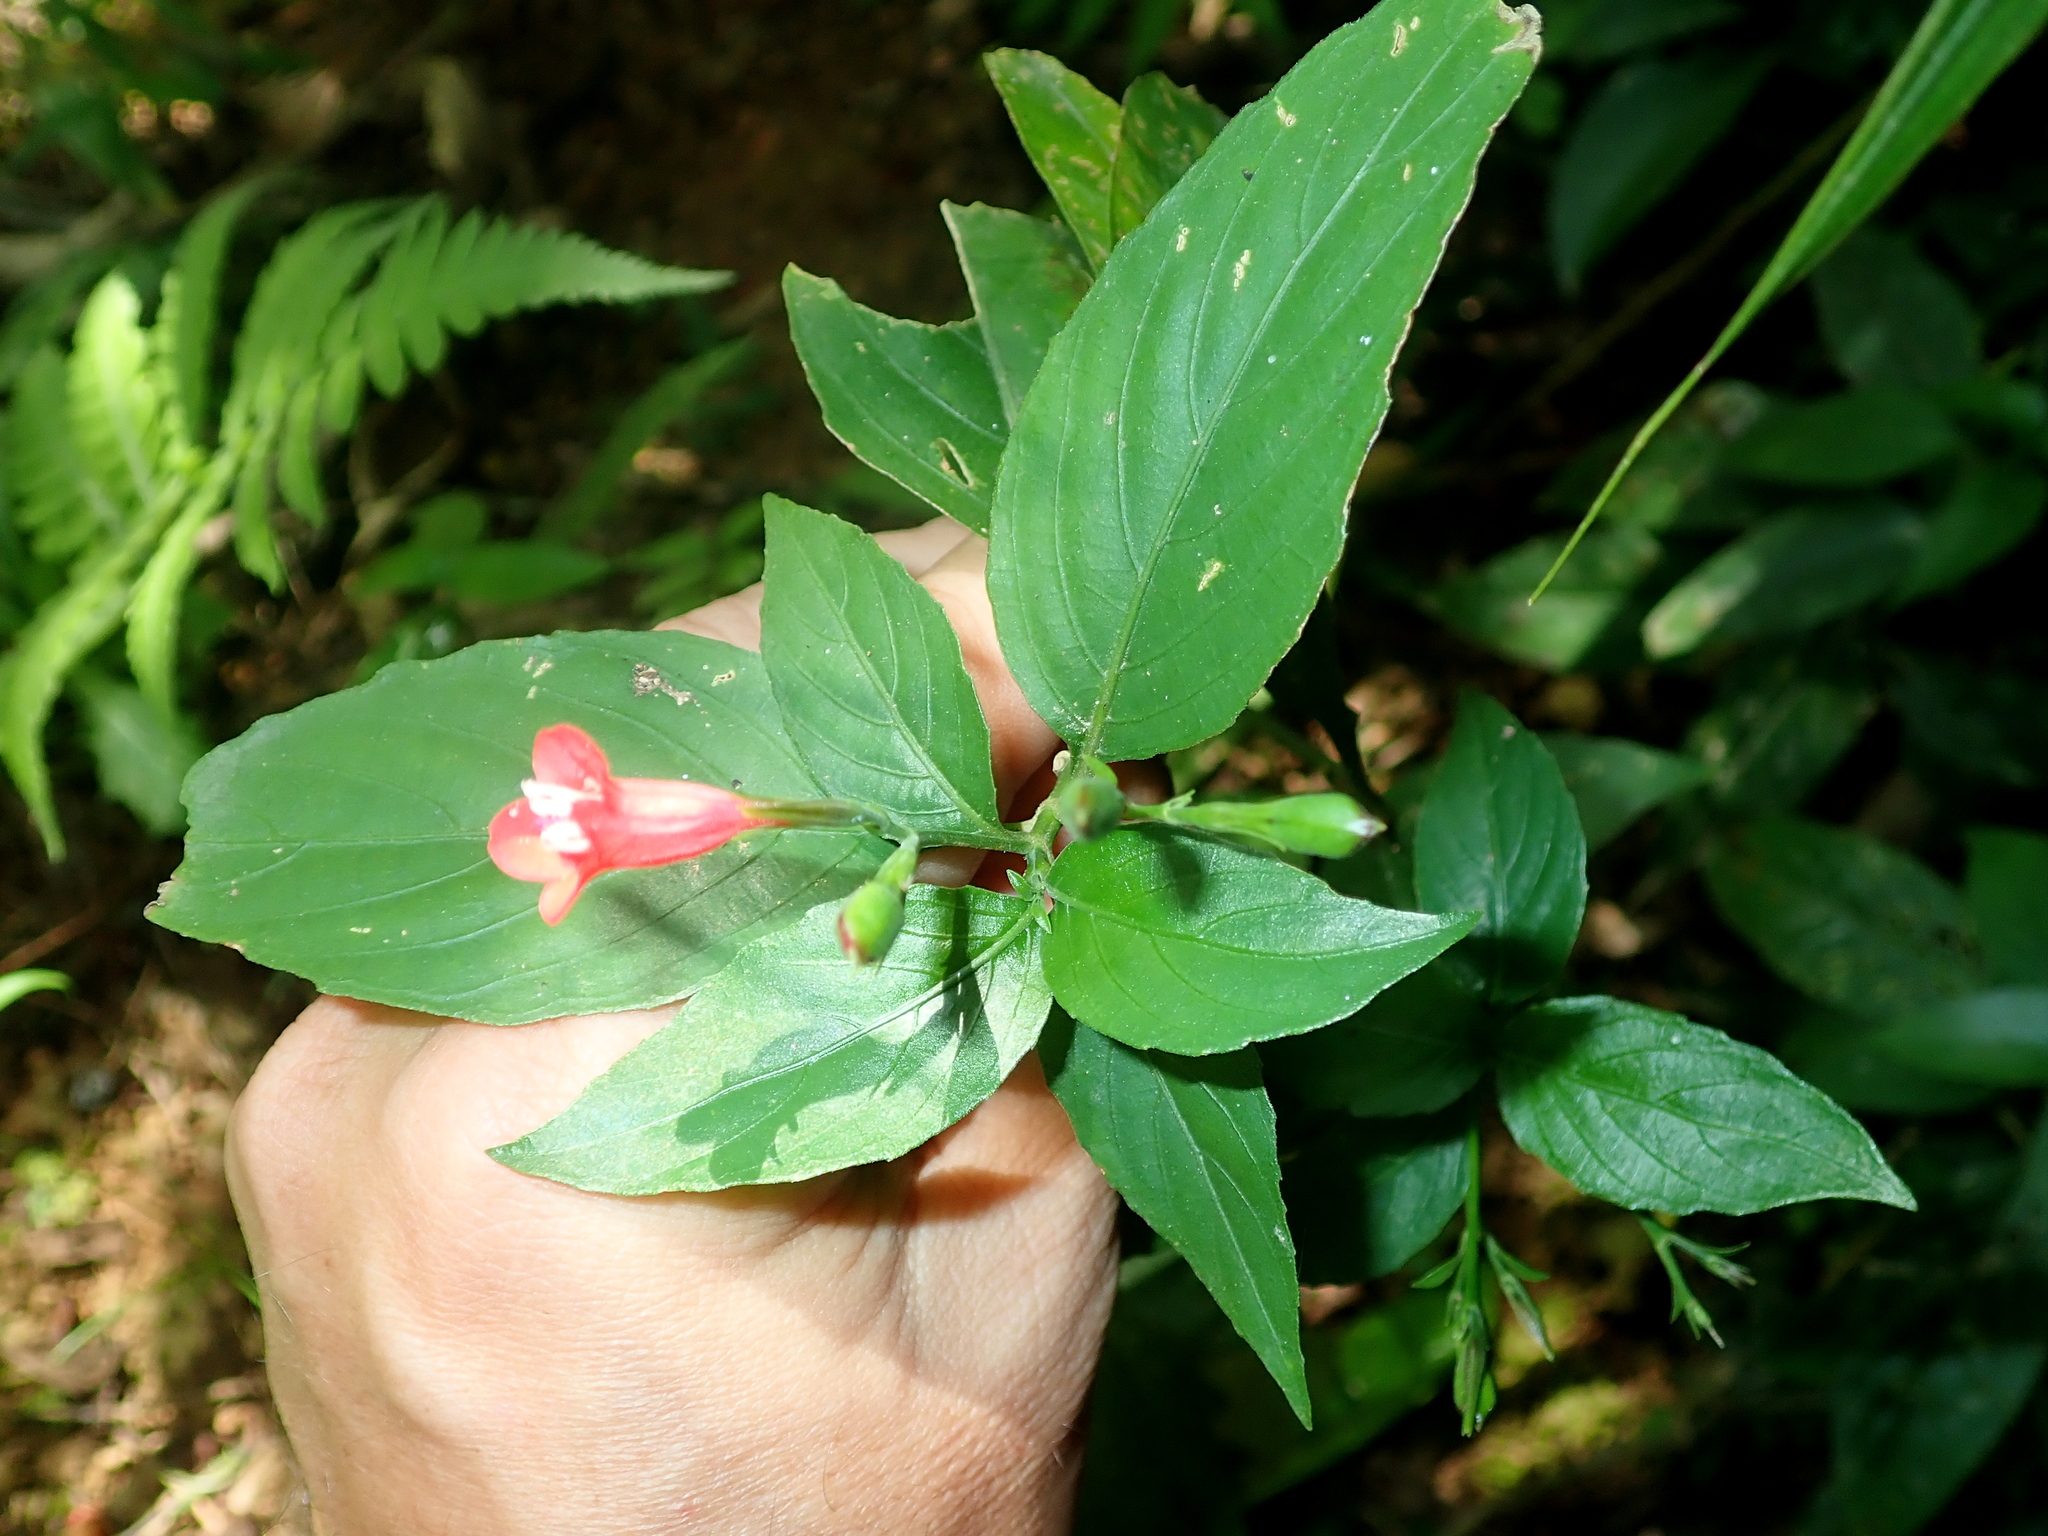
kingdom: Plantae
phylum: Tracheophyta
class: Magnoliopsida
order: Lamiales
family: Acanthaceae
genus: Ruellia
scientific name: Ruellia brevifolia
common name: Tropical wild petunia
